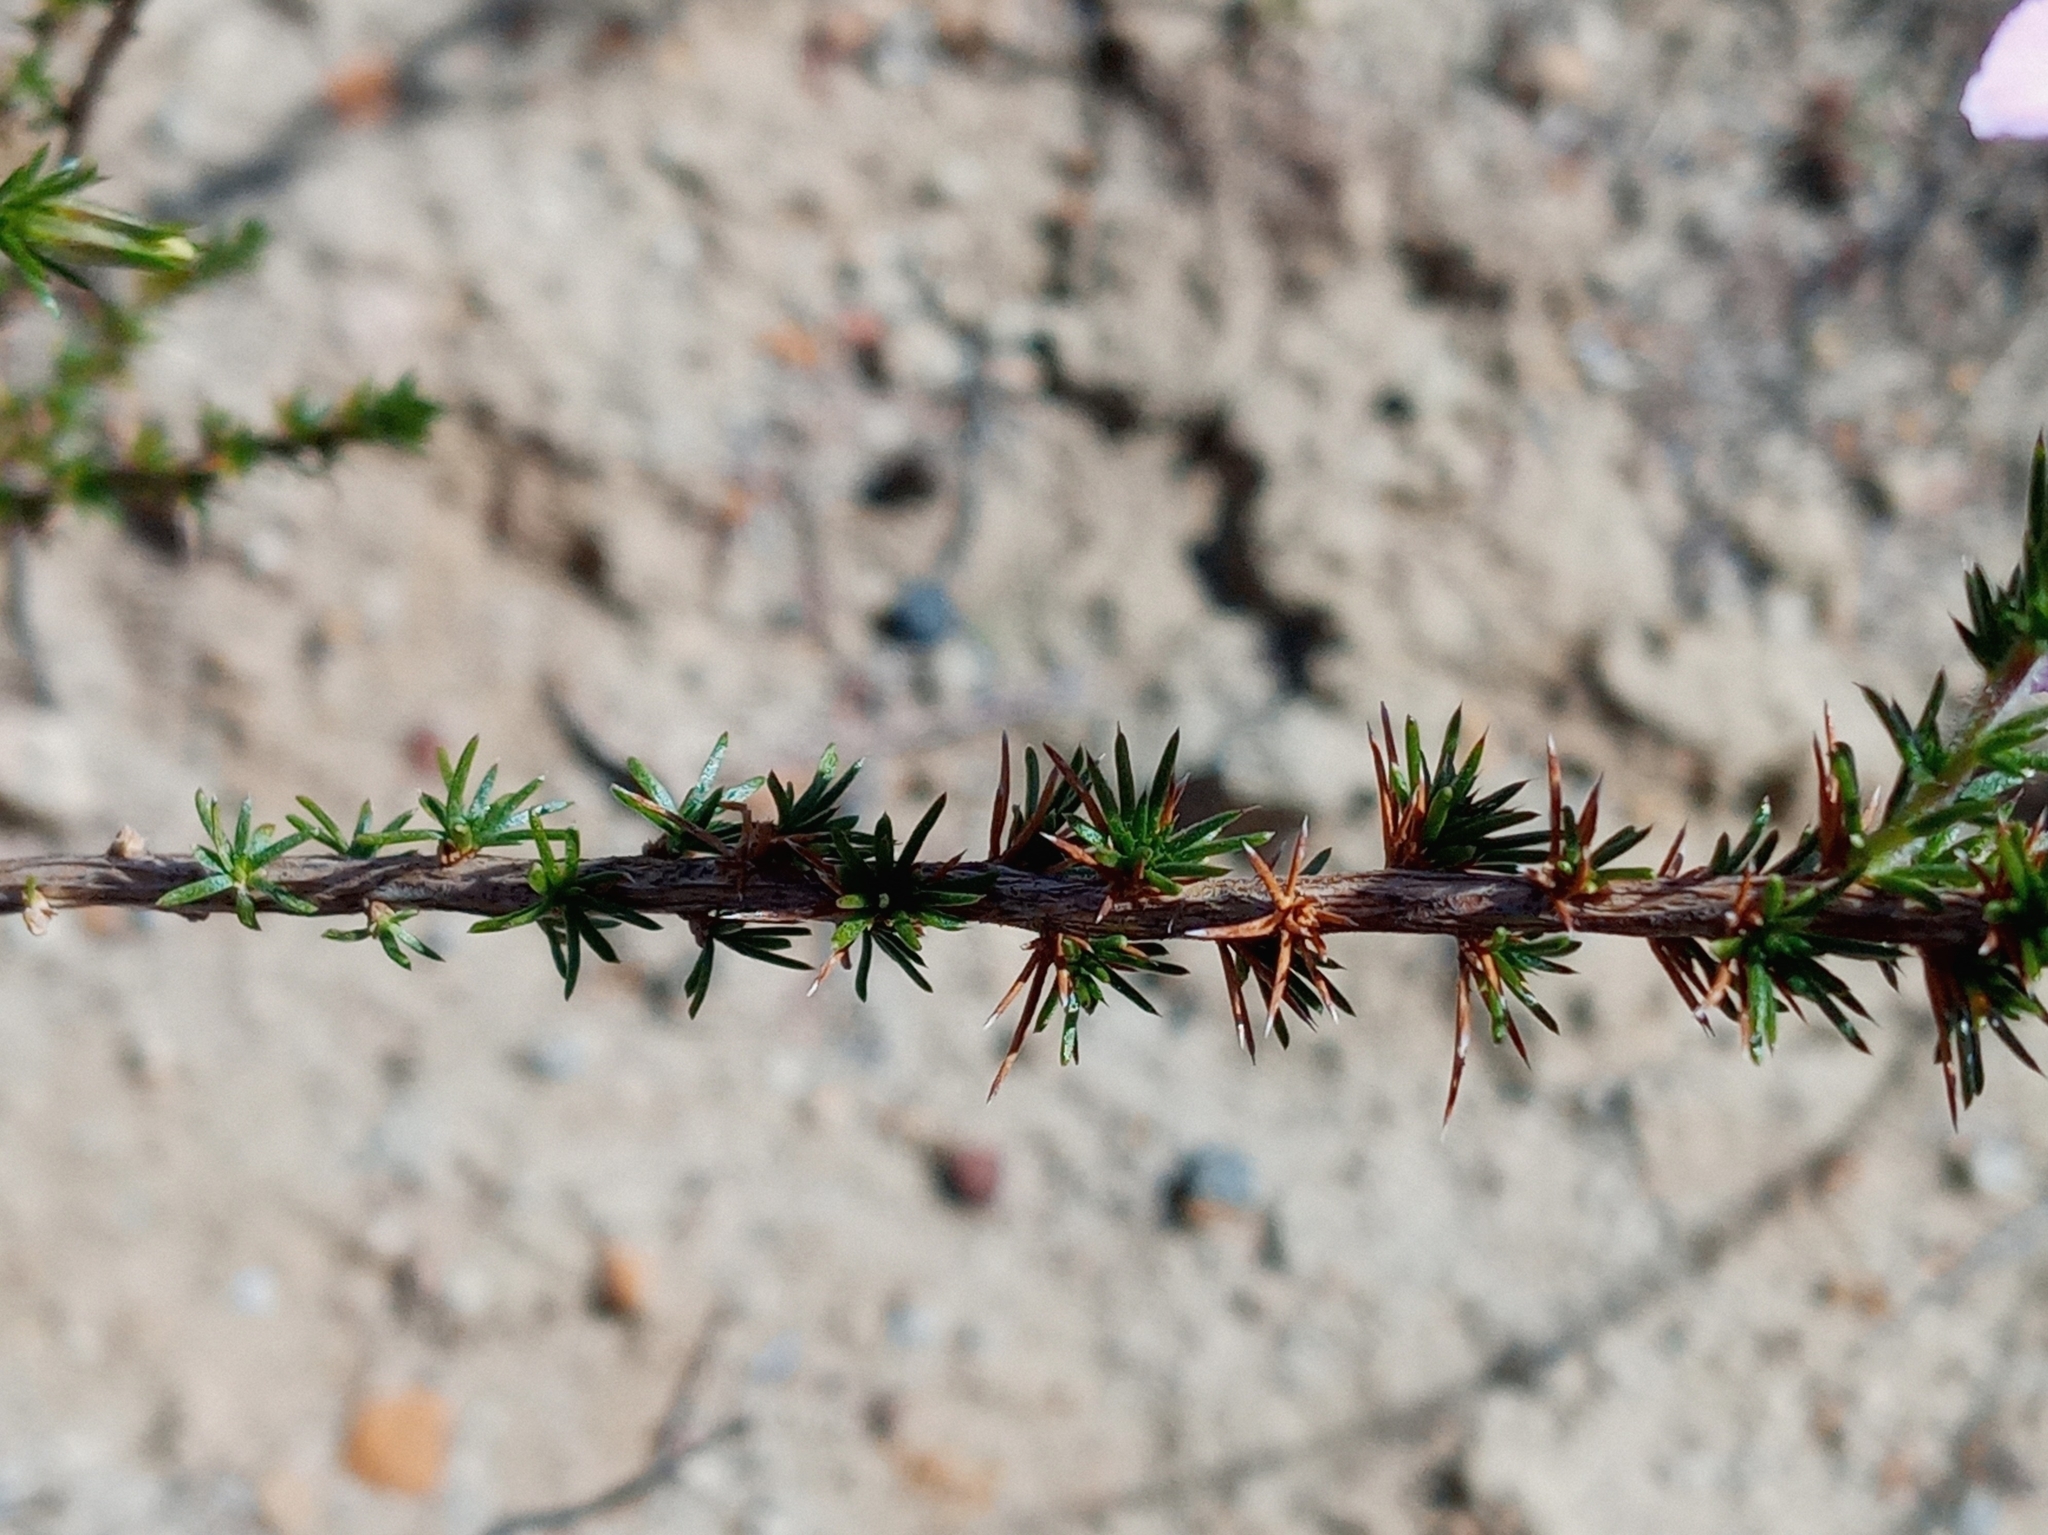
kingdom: Plantae
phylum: Tracheophyta
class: Magnoliopsida
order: Ericales
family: Polemoniaceae
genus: Linanthus
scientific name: Linanthus californicus
